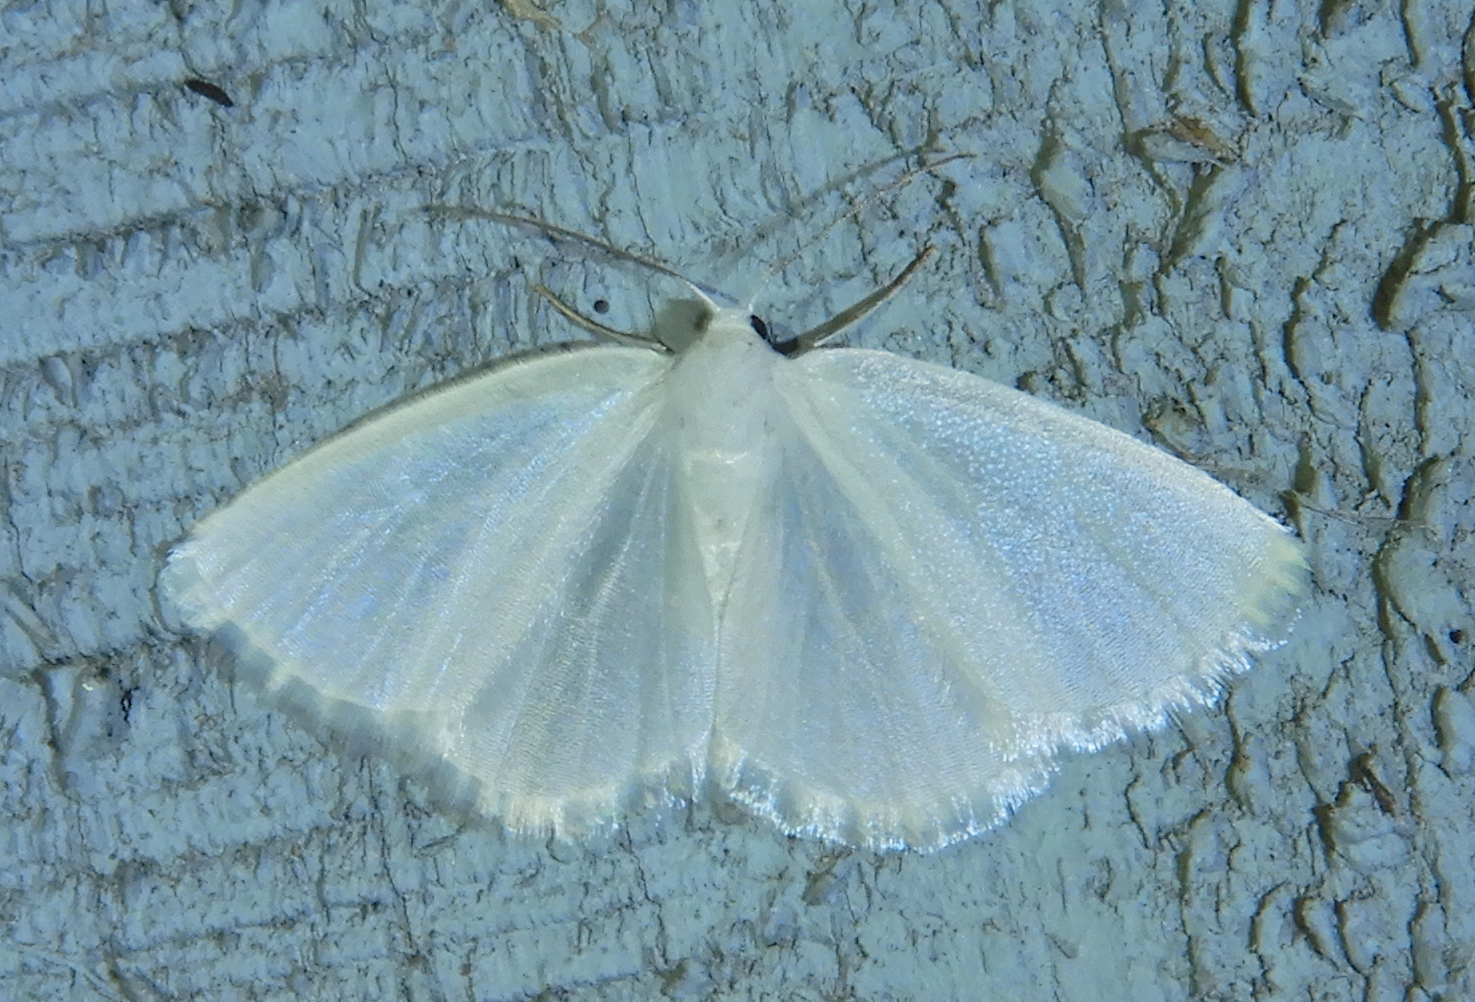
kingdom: Animalia
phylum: Arthropoda
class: Insecta
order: Lepidoptera
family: Geometridae
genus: Lomographa
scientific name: Lomographa vestaliata
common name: White spring moth
